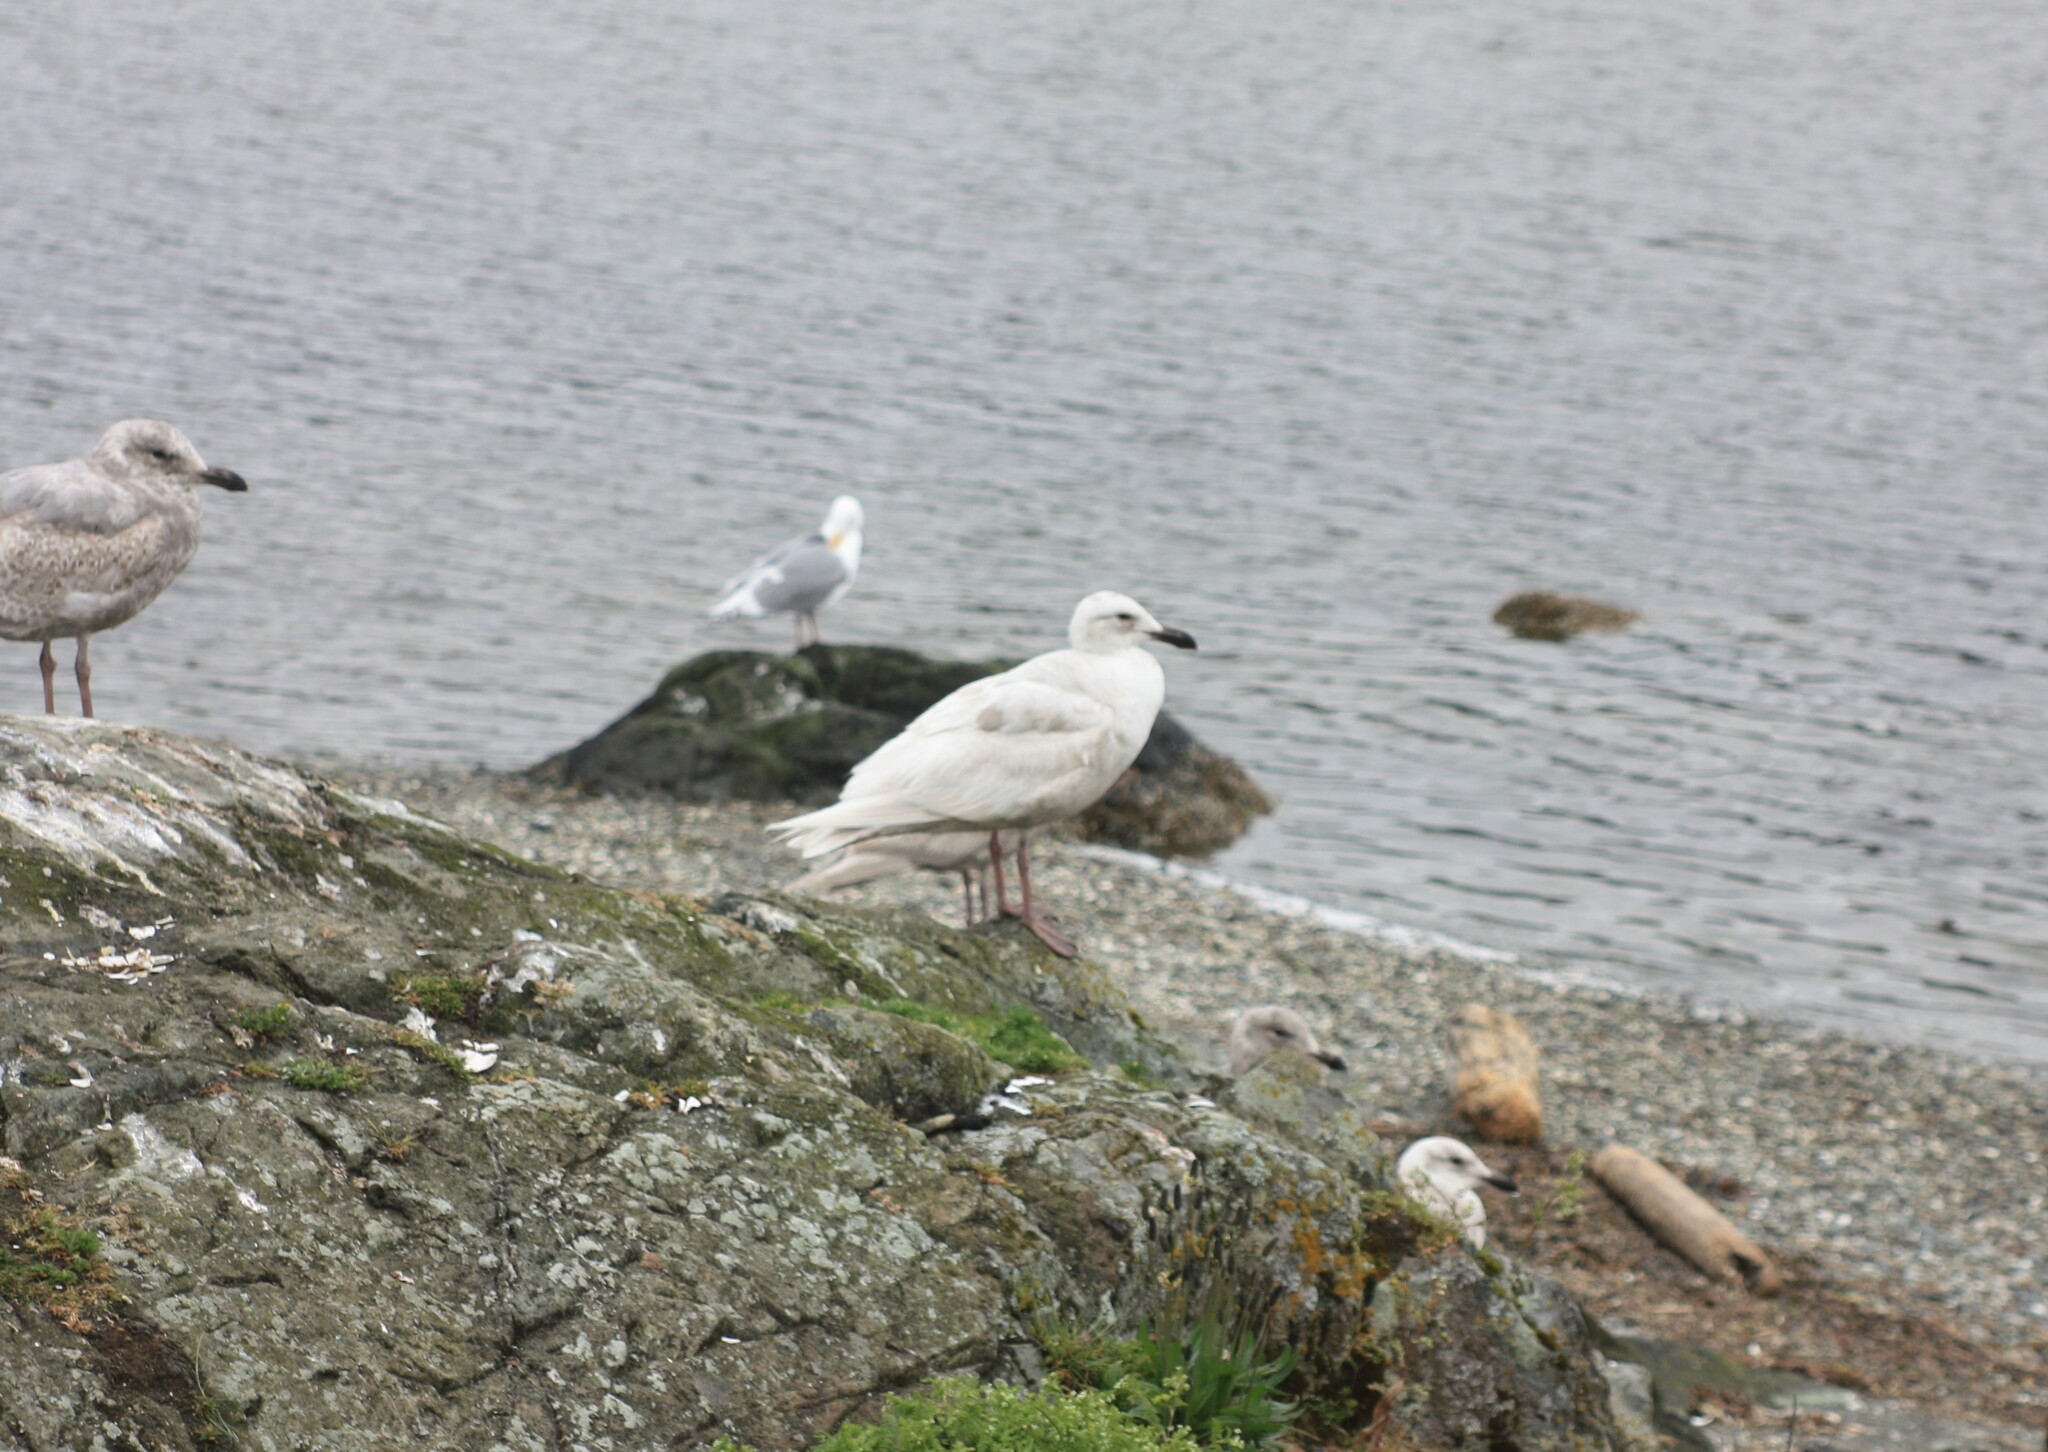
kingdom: Animalia
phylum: Chordata
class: Aves
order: Charadriiformes
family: Laridae
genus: Larus
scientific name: Larus glaucescens
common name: Glaucous-winged gull
